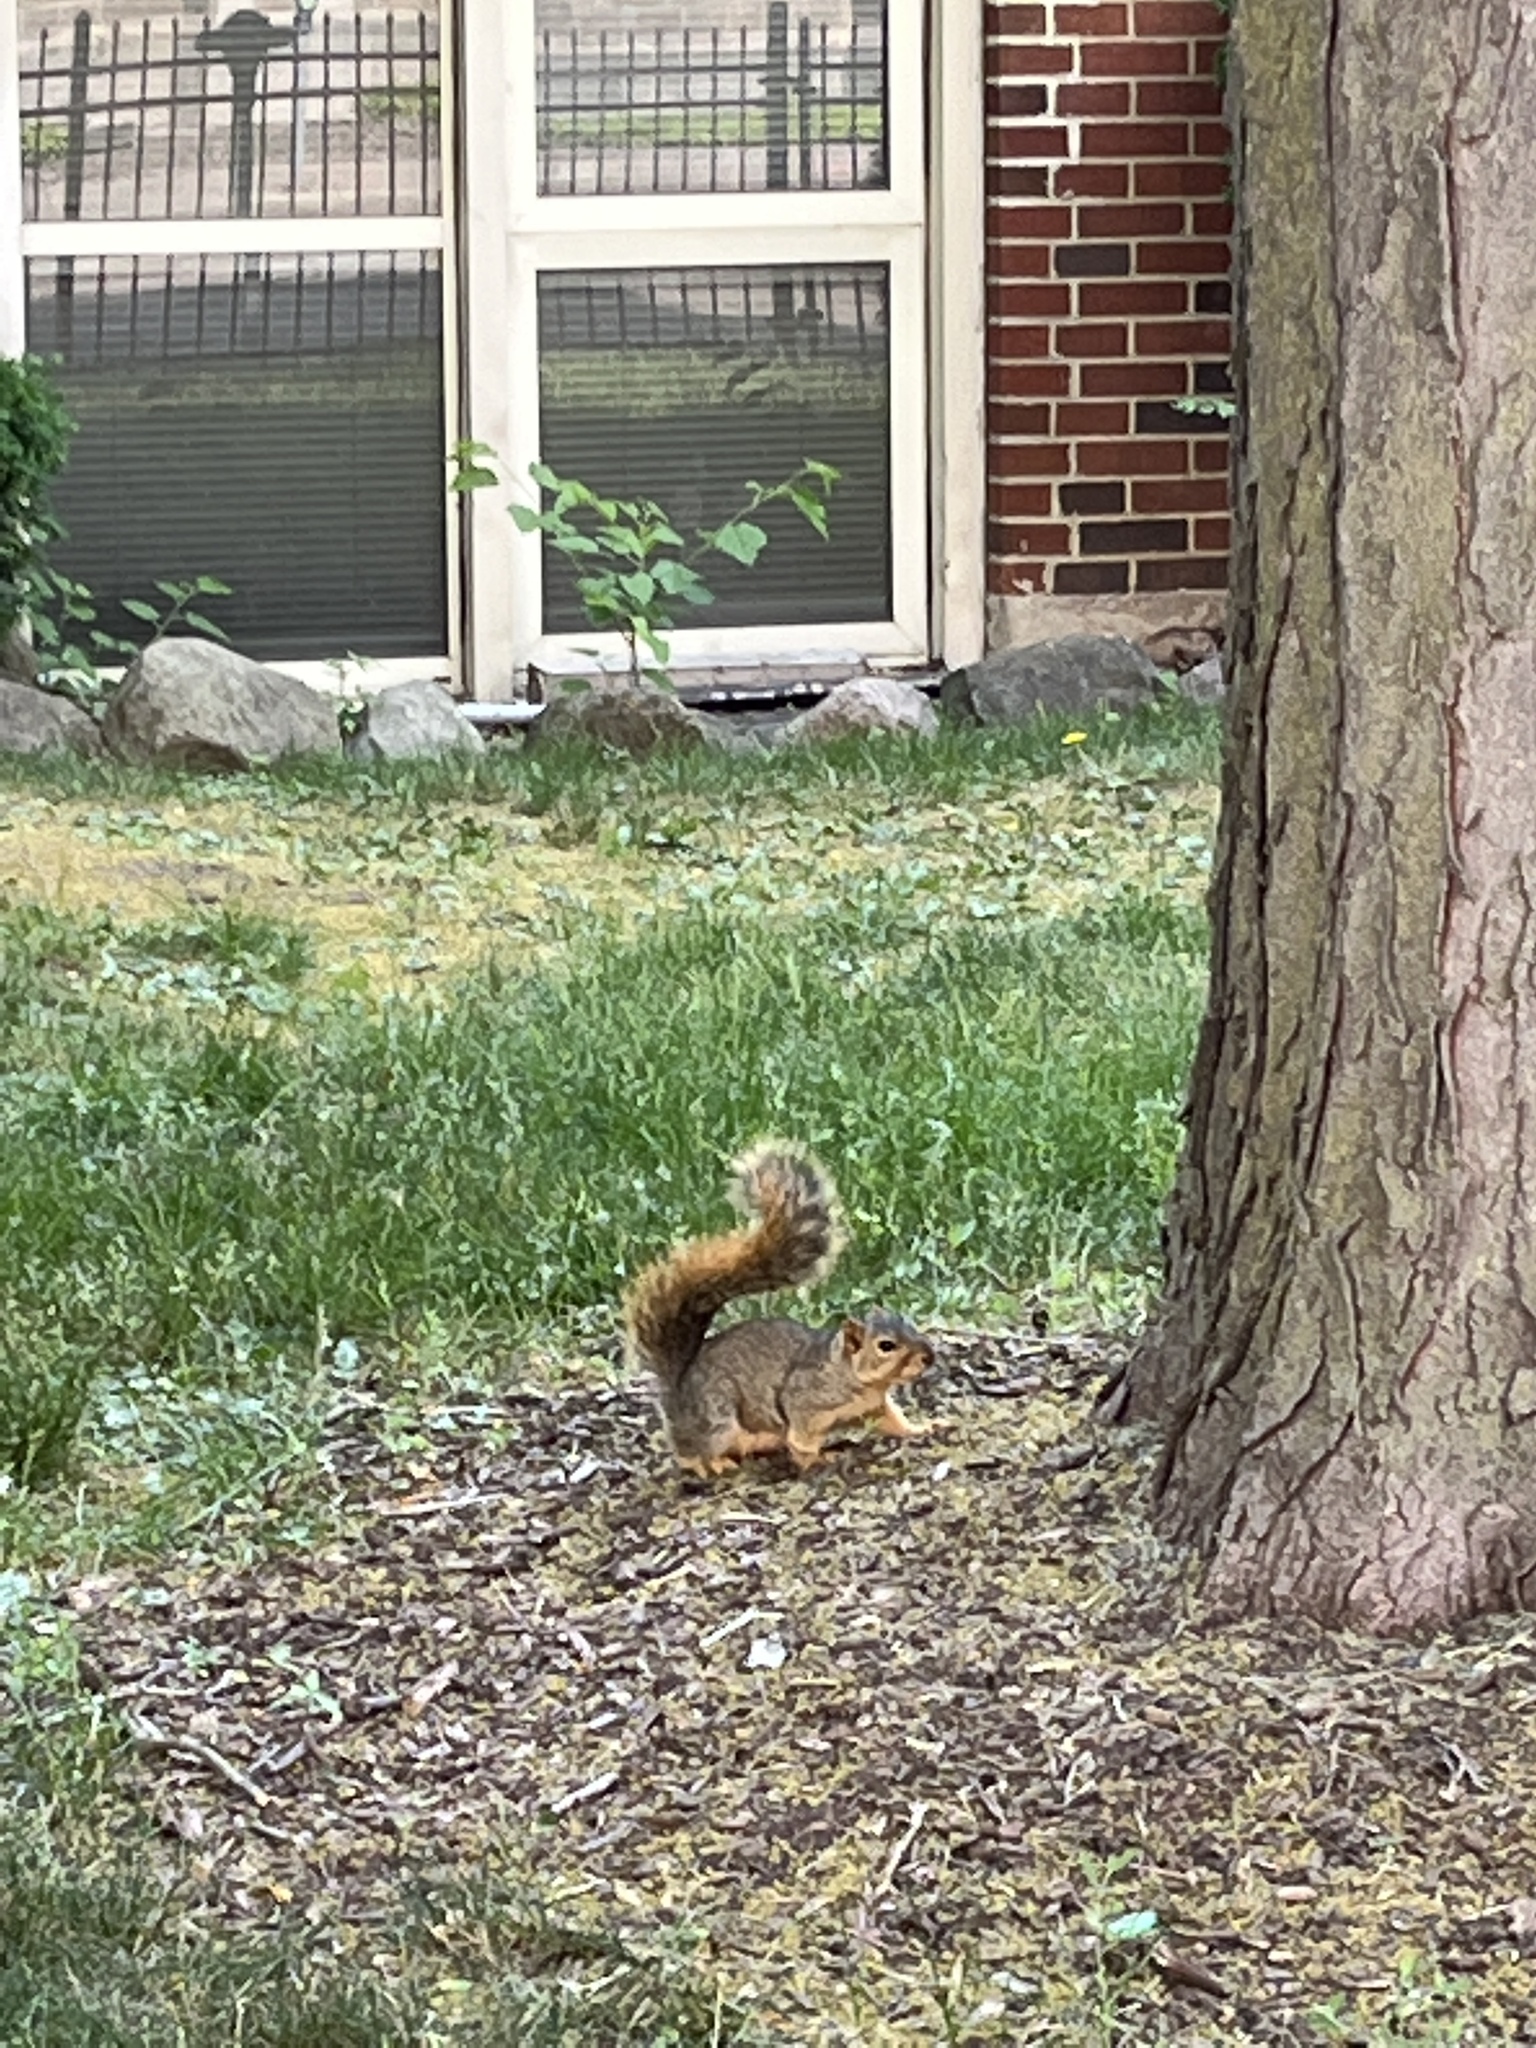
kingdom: Animalia
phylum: Chordata
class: Mammalia
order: Rodentia
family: Sciuridae
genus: Sciurus
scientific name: Sciurus niger
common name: Fox squirrel
